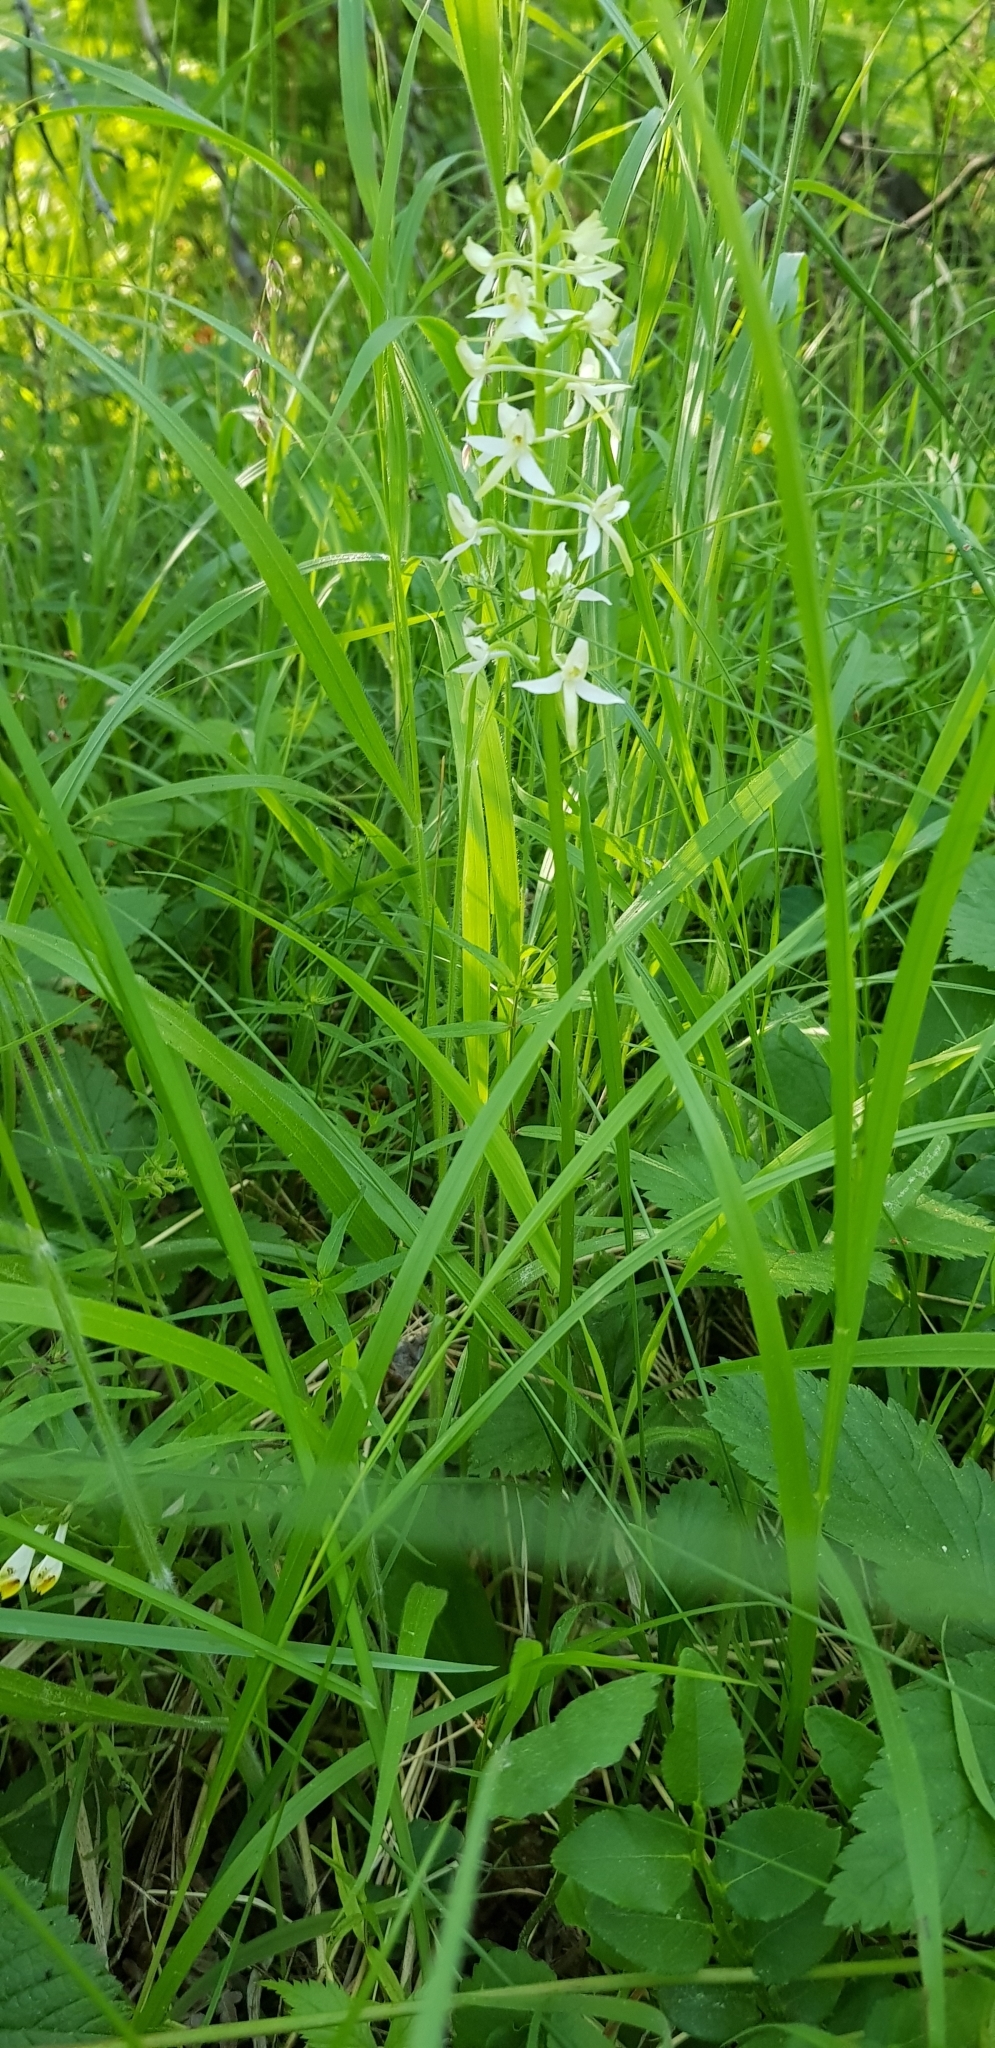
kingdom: Plantae
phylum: Tracheophyta
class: Liliopsida
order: Asparagales
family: Orchidaceae
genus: Platanthera
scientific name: Platanthera bifolia
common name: Lesser butterfly-orchid
